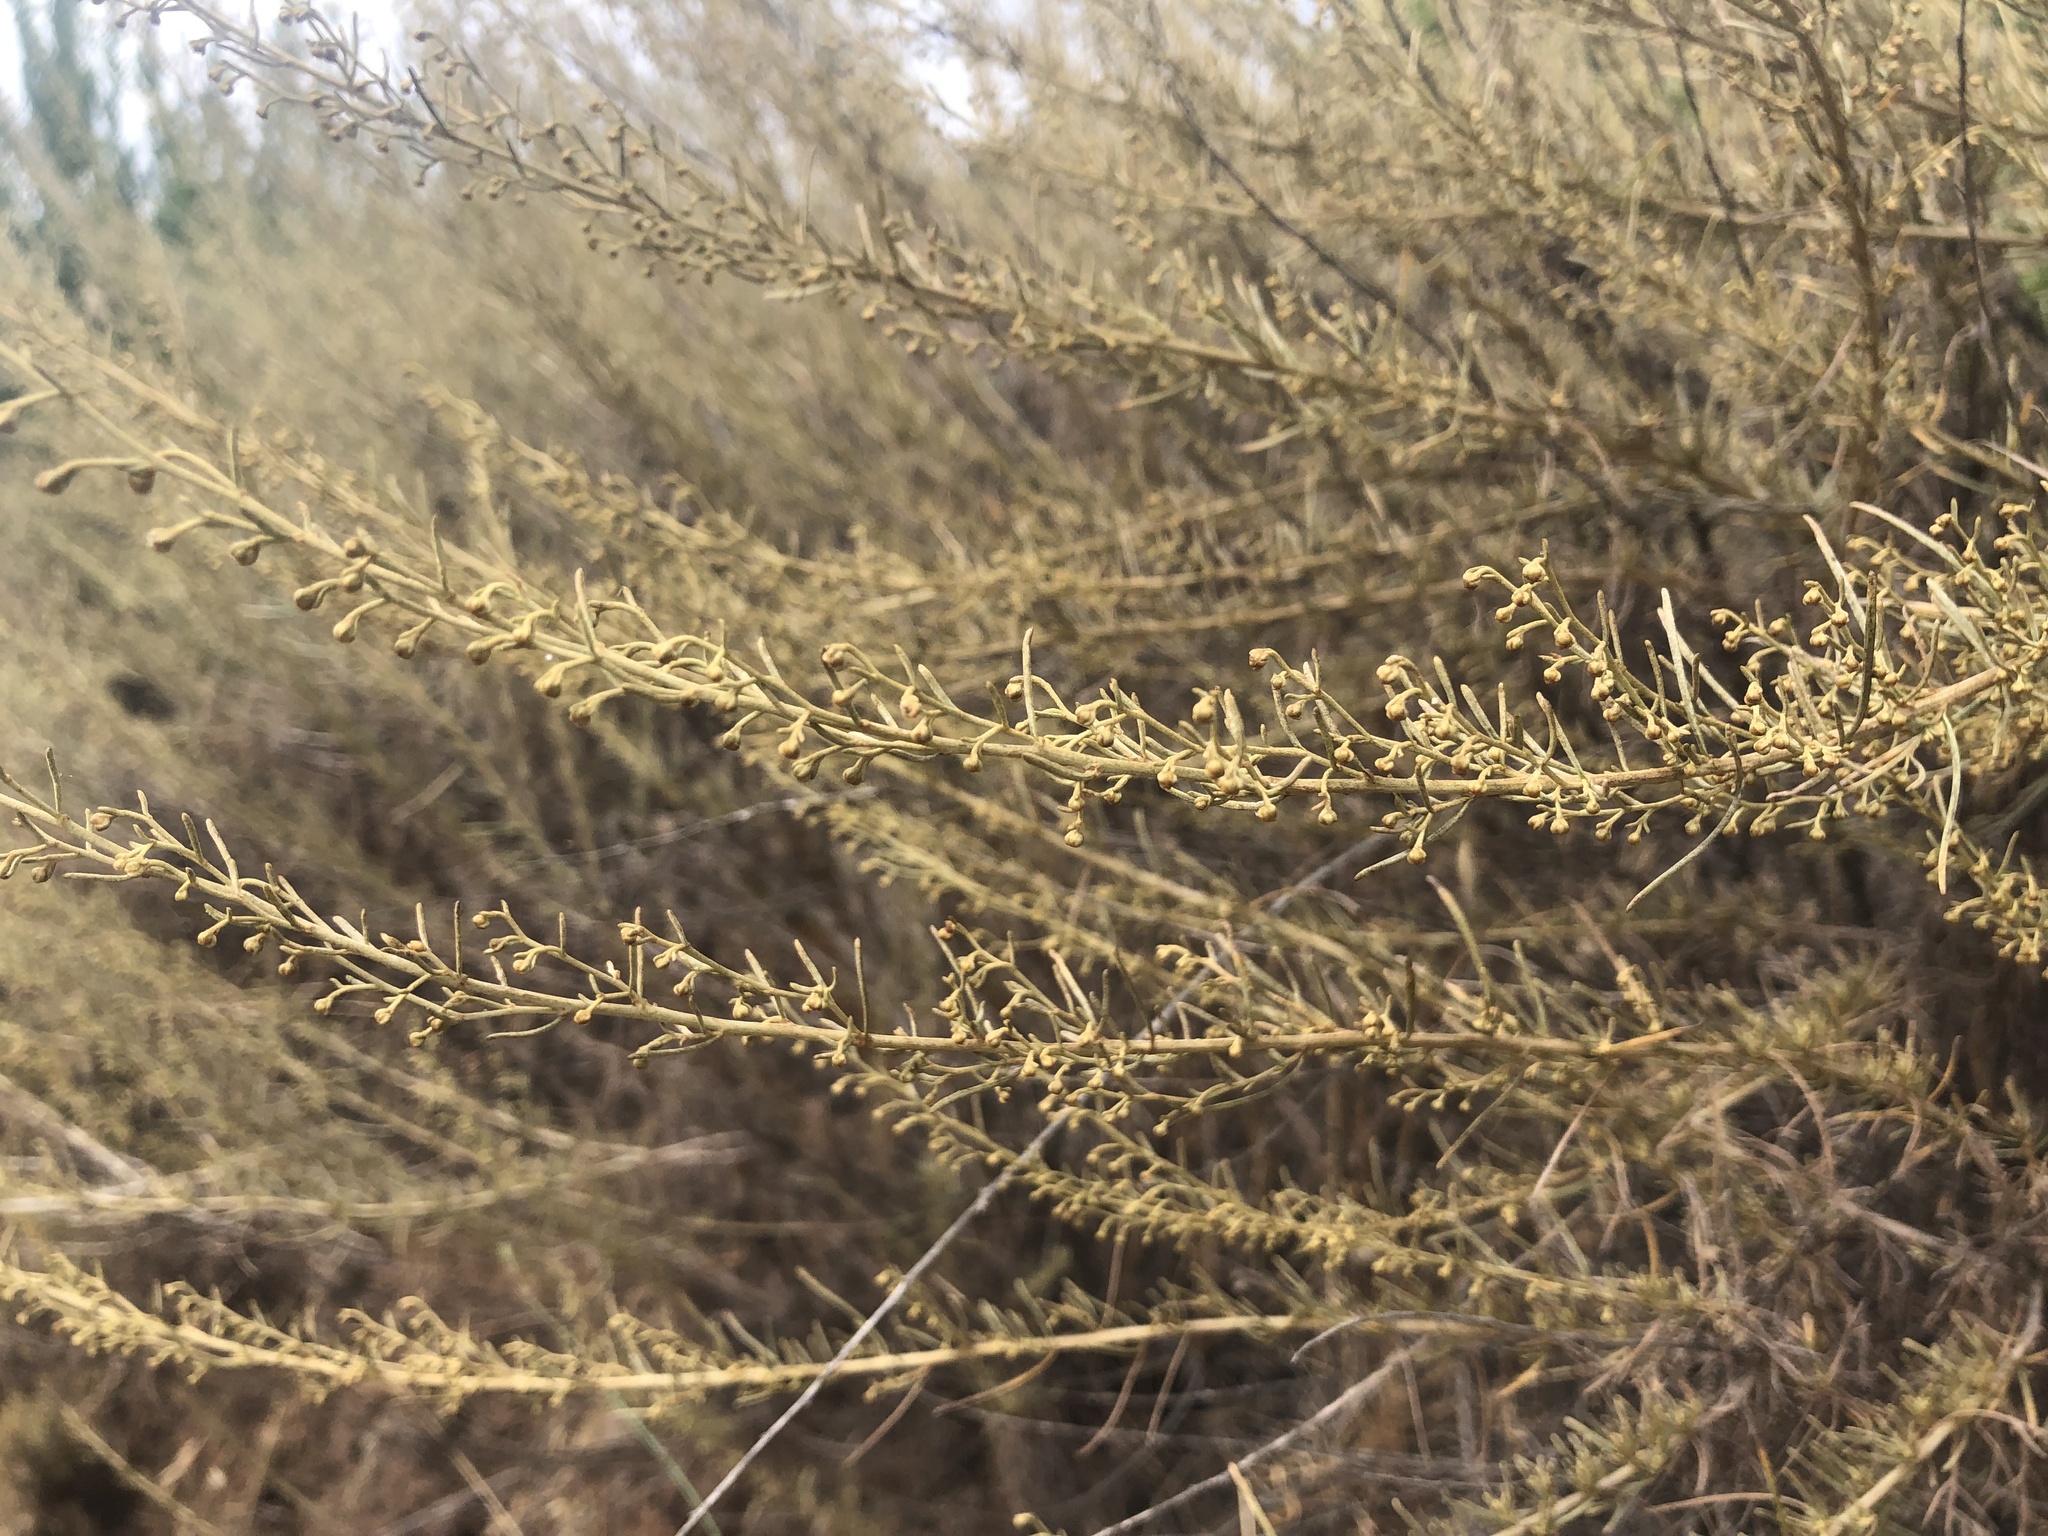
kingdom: Plantae
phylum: Tracheophyta
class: Magnoliopsida
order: Asterales
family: Asteraceae
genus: Artemisia
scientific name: Artemisia californica
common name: California sagebrush
